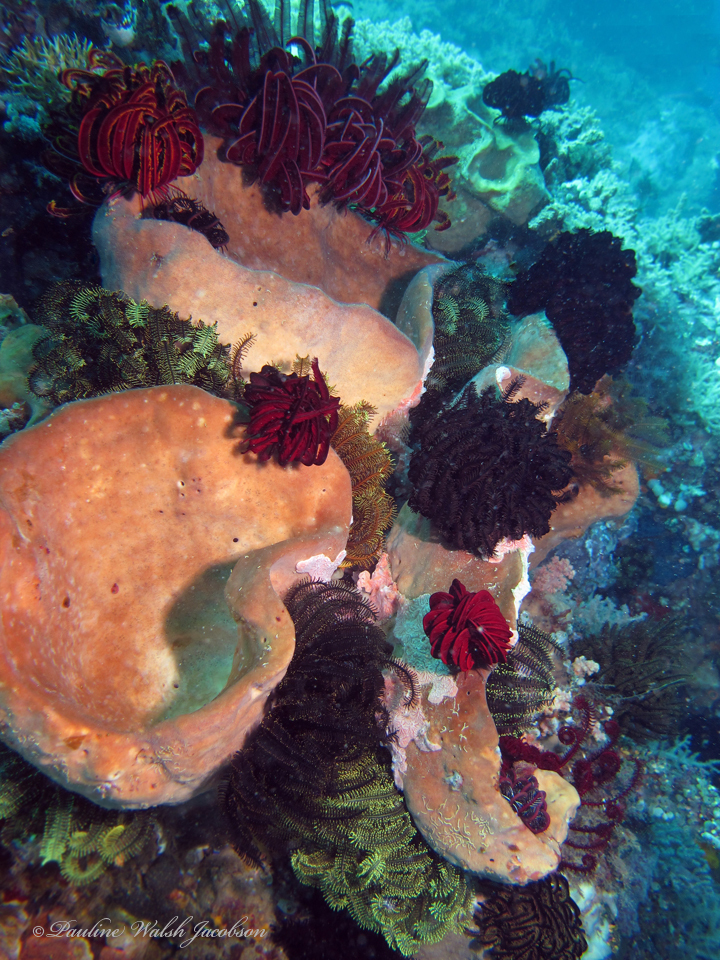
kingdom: Animalia
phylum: Echinodermata
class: Crinoidea
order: Comatulida
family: Himerometridae
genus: Himerometra
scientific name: Himerometra robustipinna
